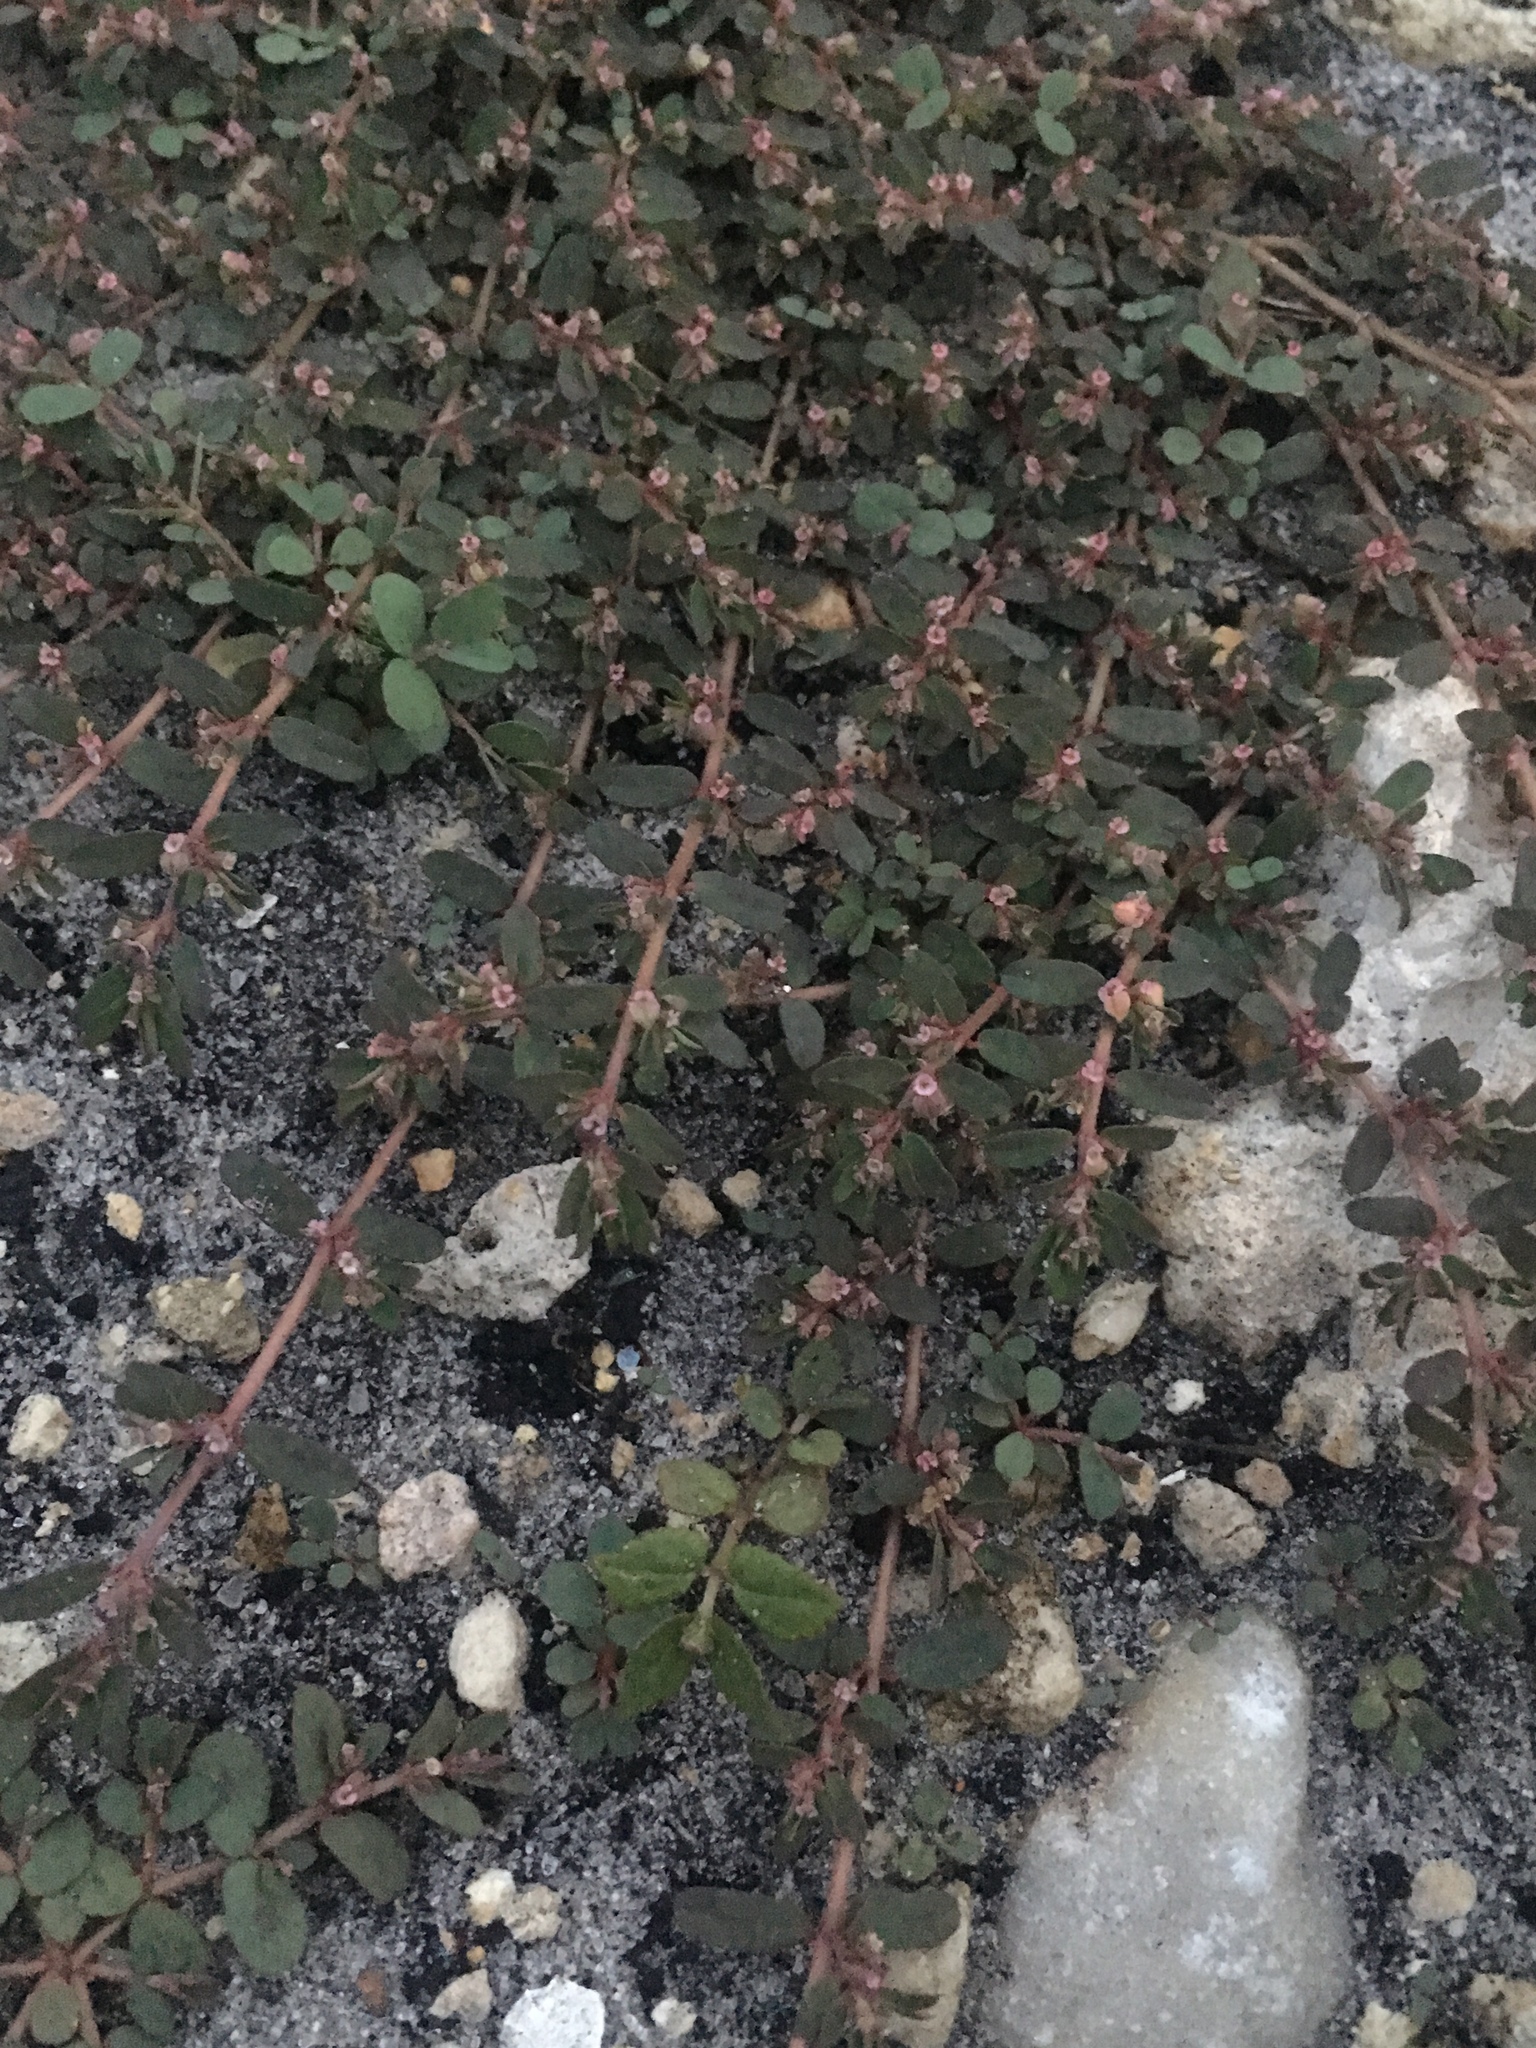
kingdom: Plantae
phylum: Tracheophyta
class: Magnoliopsida
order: Malpighiales
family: Euphorbiaceae
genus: Euphorbia
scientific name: Euphorbia maculata
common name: Spotted spurge
